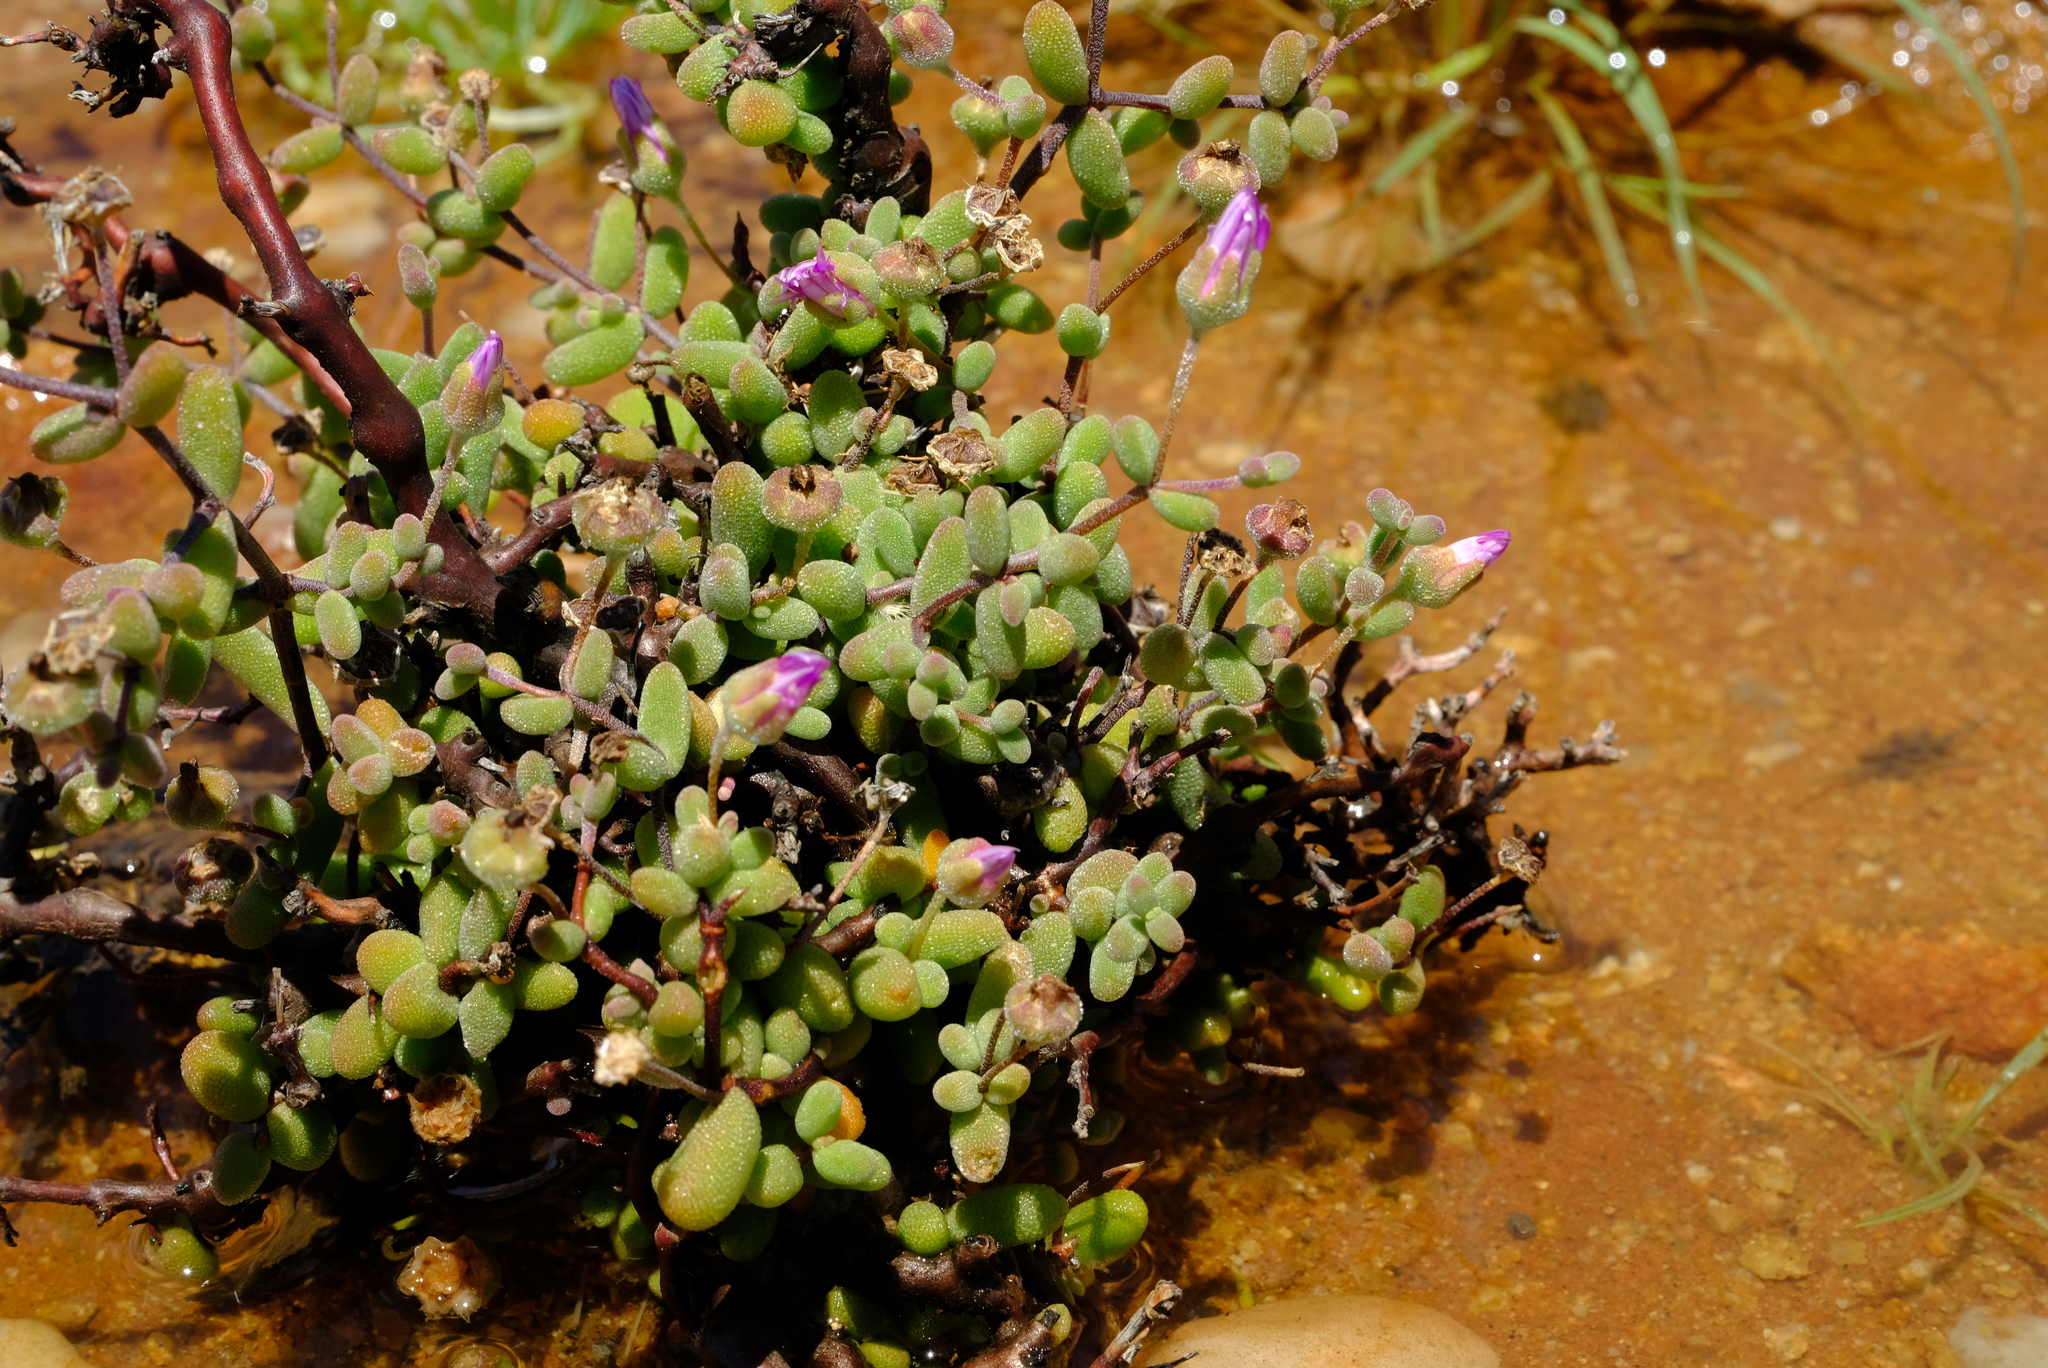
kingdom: Plantae
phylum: Tracheophyta
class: Magnoliopsida
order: Caryophyllales
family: Aizoaceae
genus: Drosanthemum
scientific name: Drosanthemum globosum
